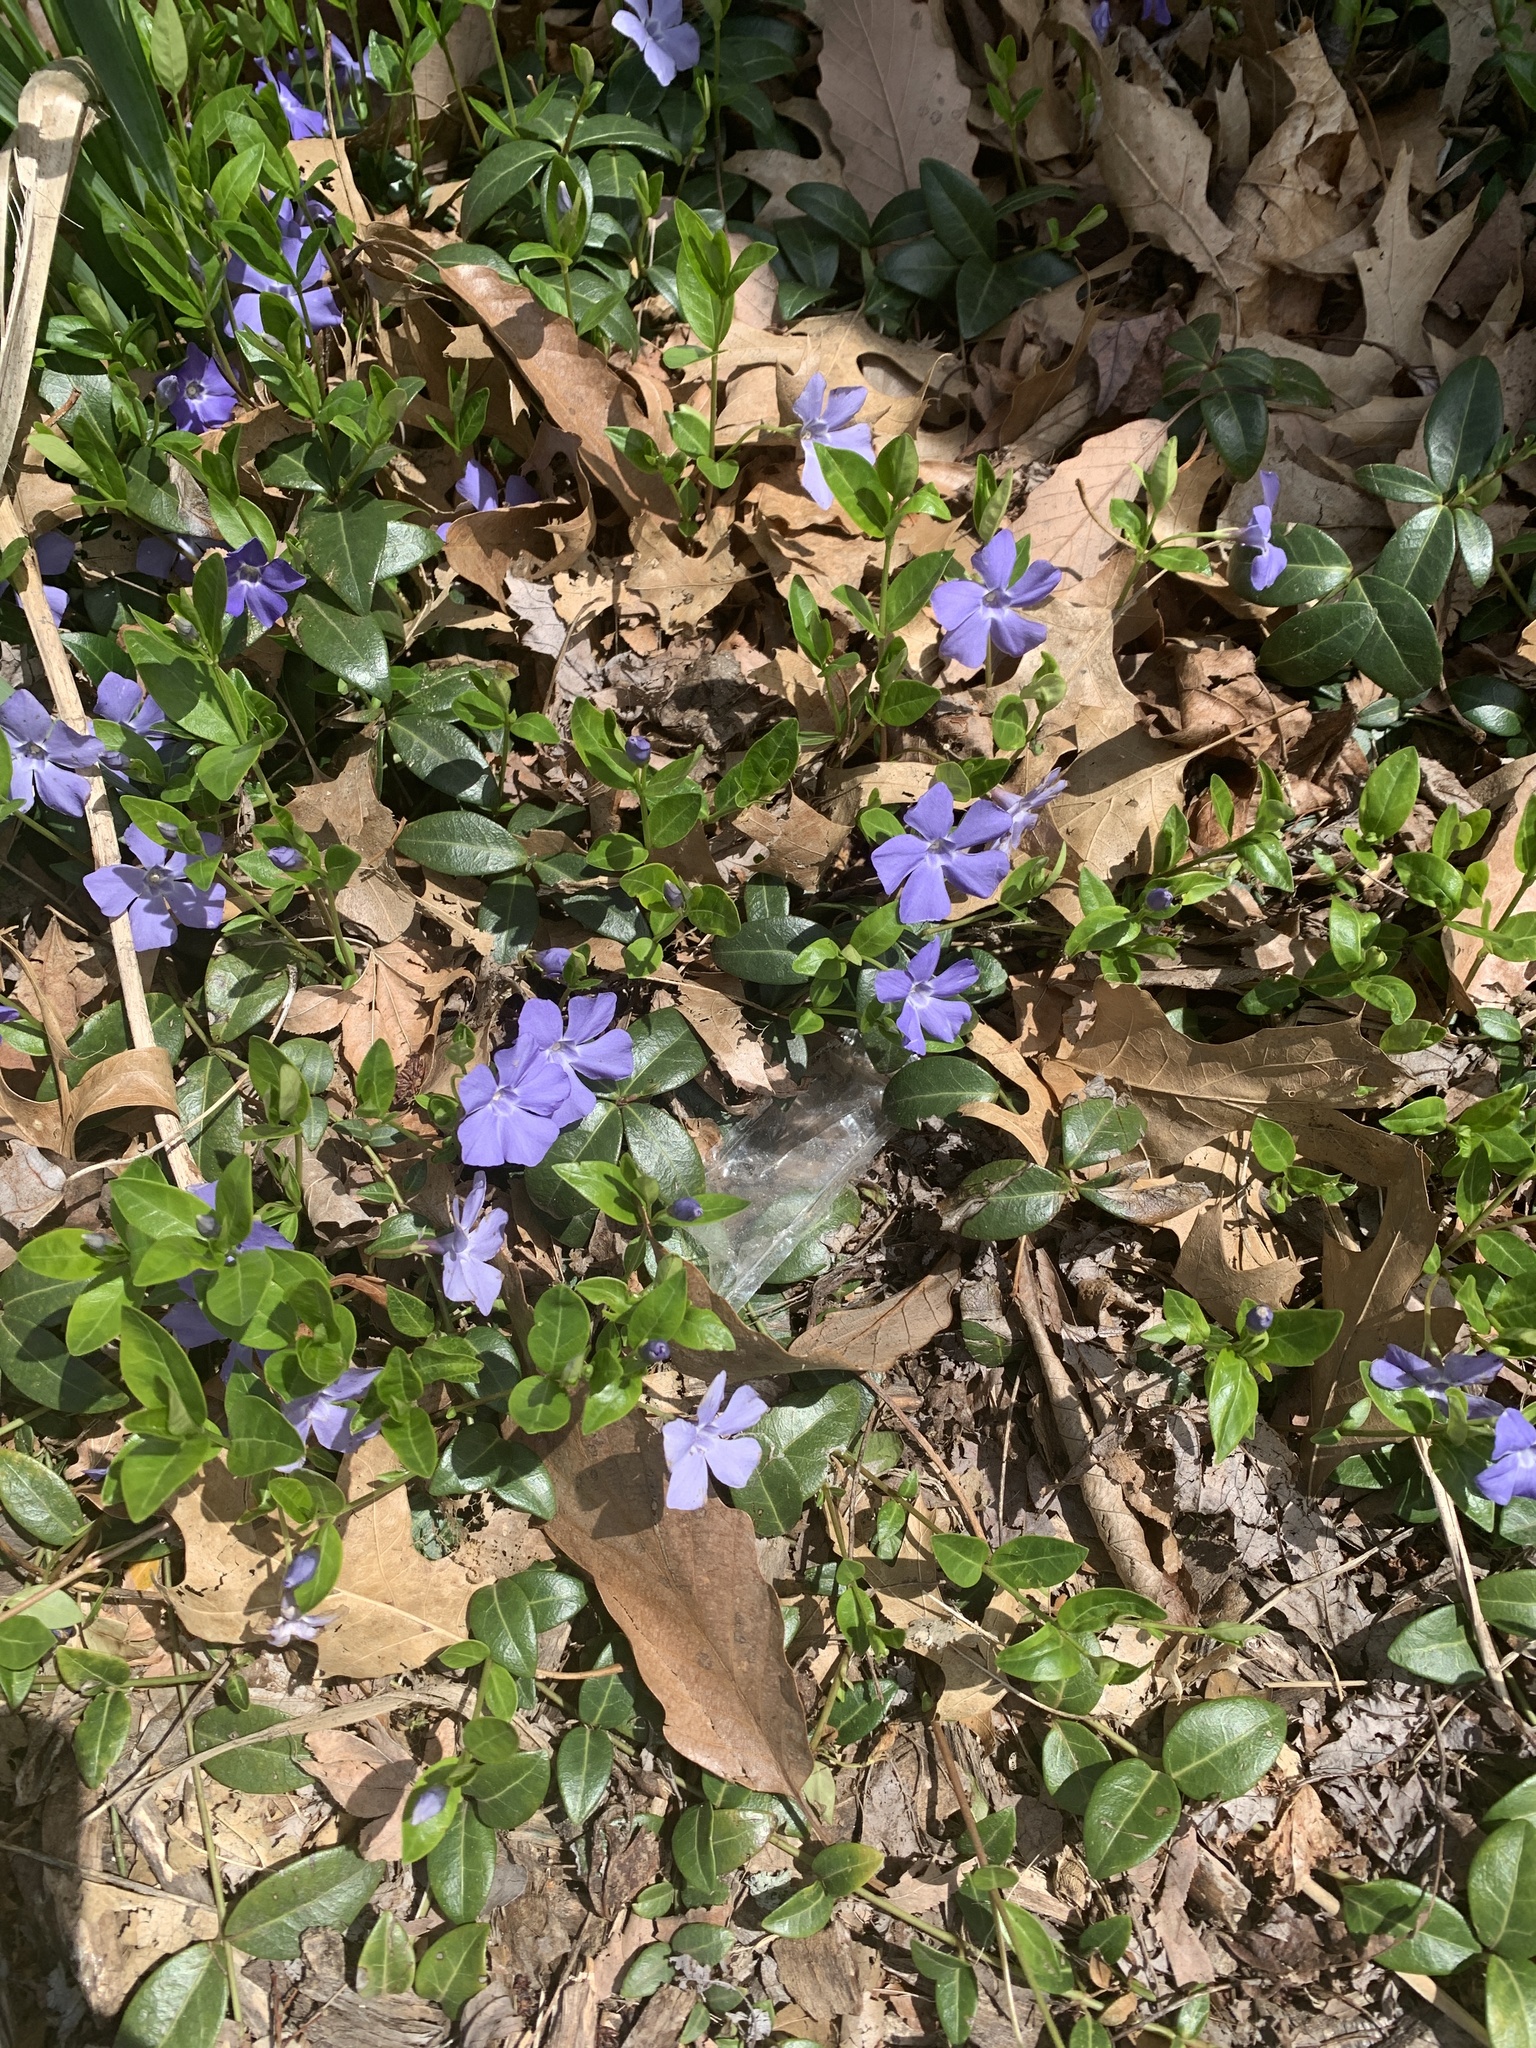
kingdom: Plantae
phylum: Tracheophyta
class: Magnoliopsida
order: Gentianales
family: Apocynaceae
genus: Vinca
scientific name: Vinca minor
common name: Lesser periwinkle
